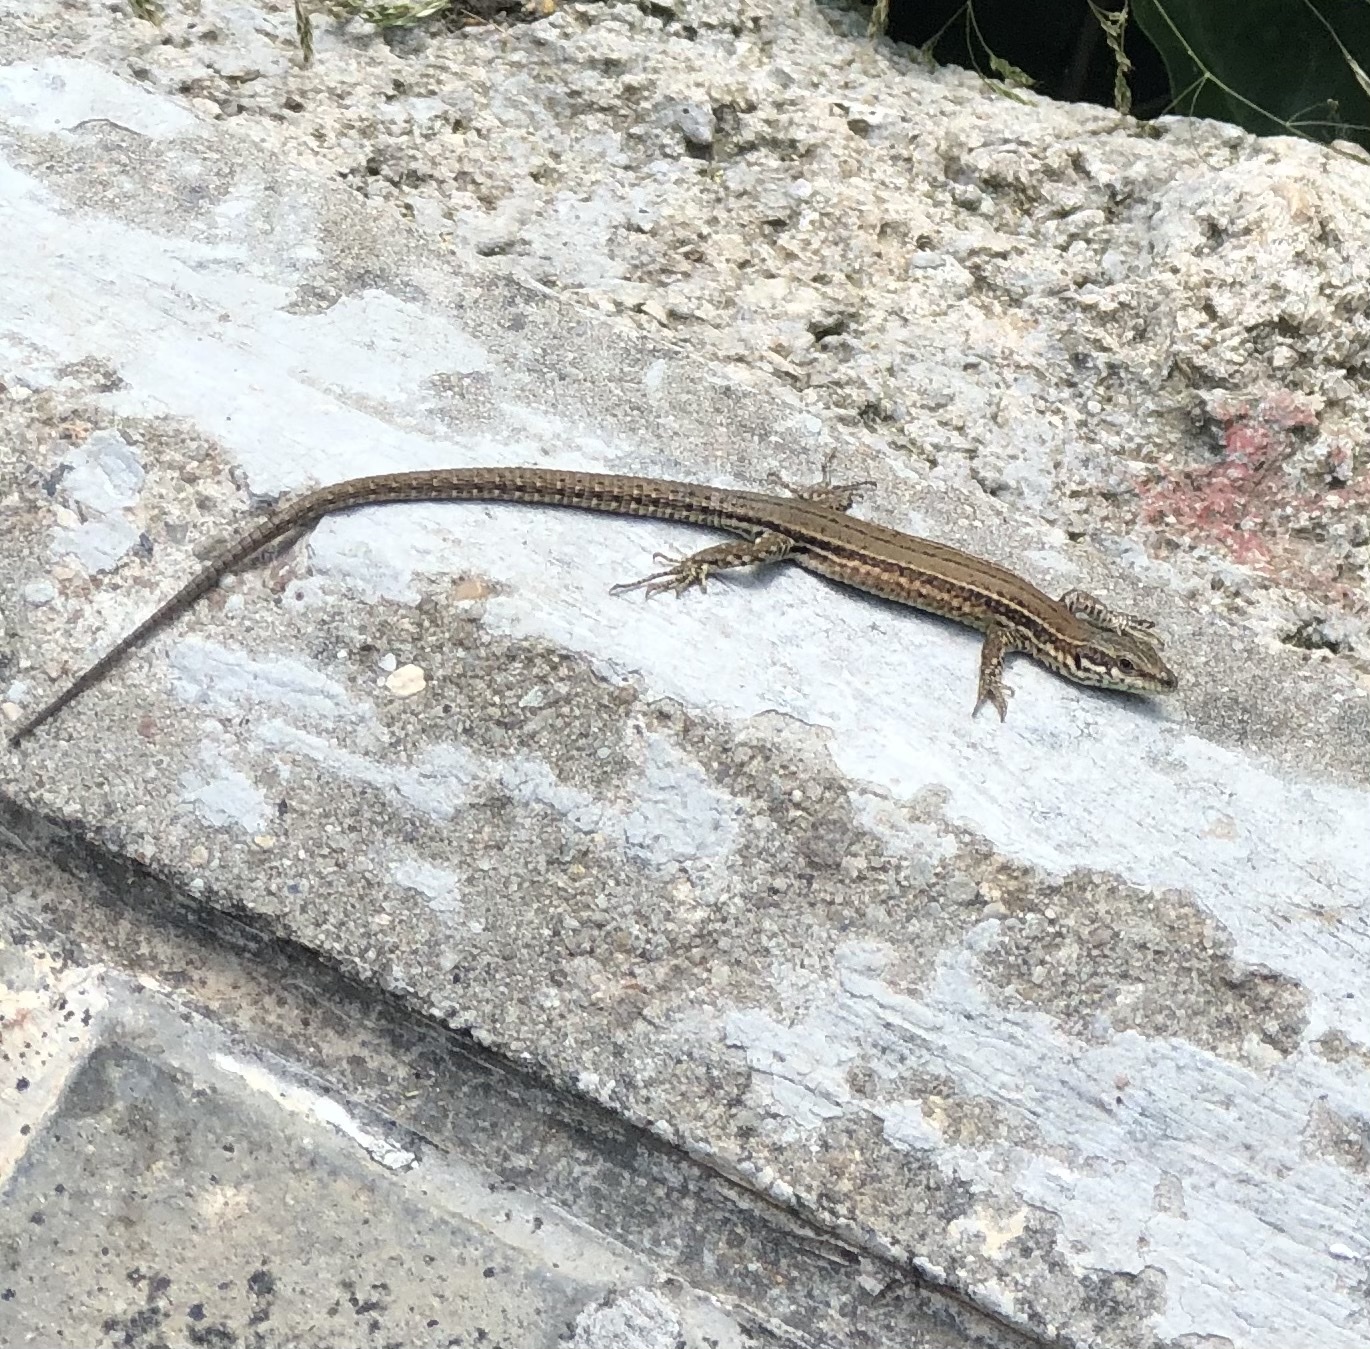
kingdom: Animalia
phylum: Chordata
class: Squamata
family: Lacertidae
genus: Podarcis
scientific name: Podarcis liolepis
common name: Catalonian wall lizard
